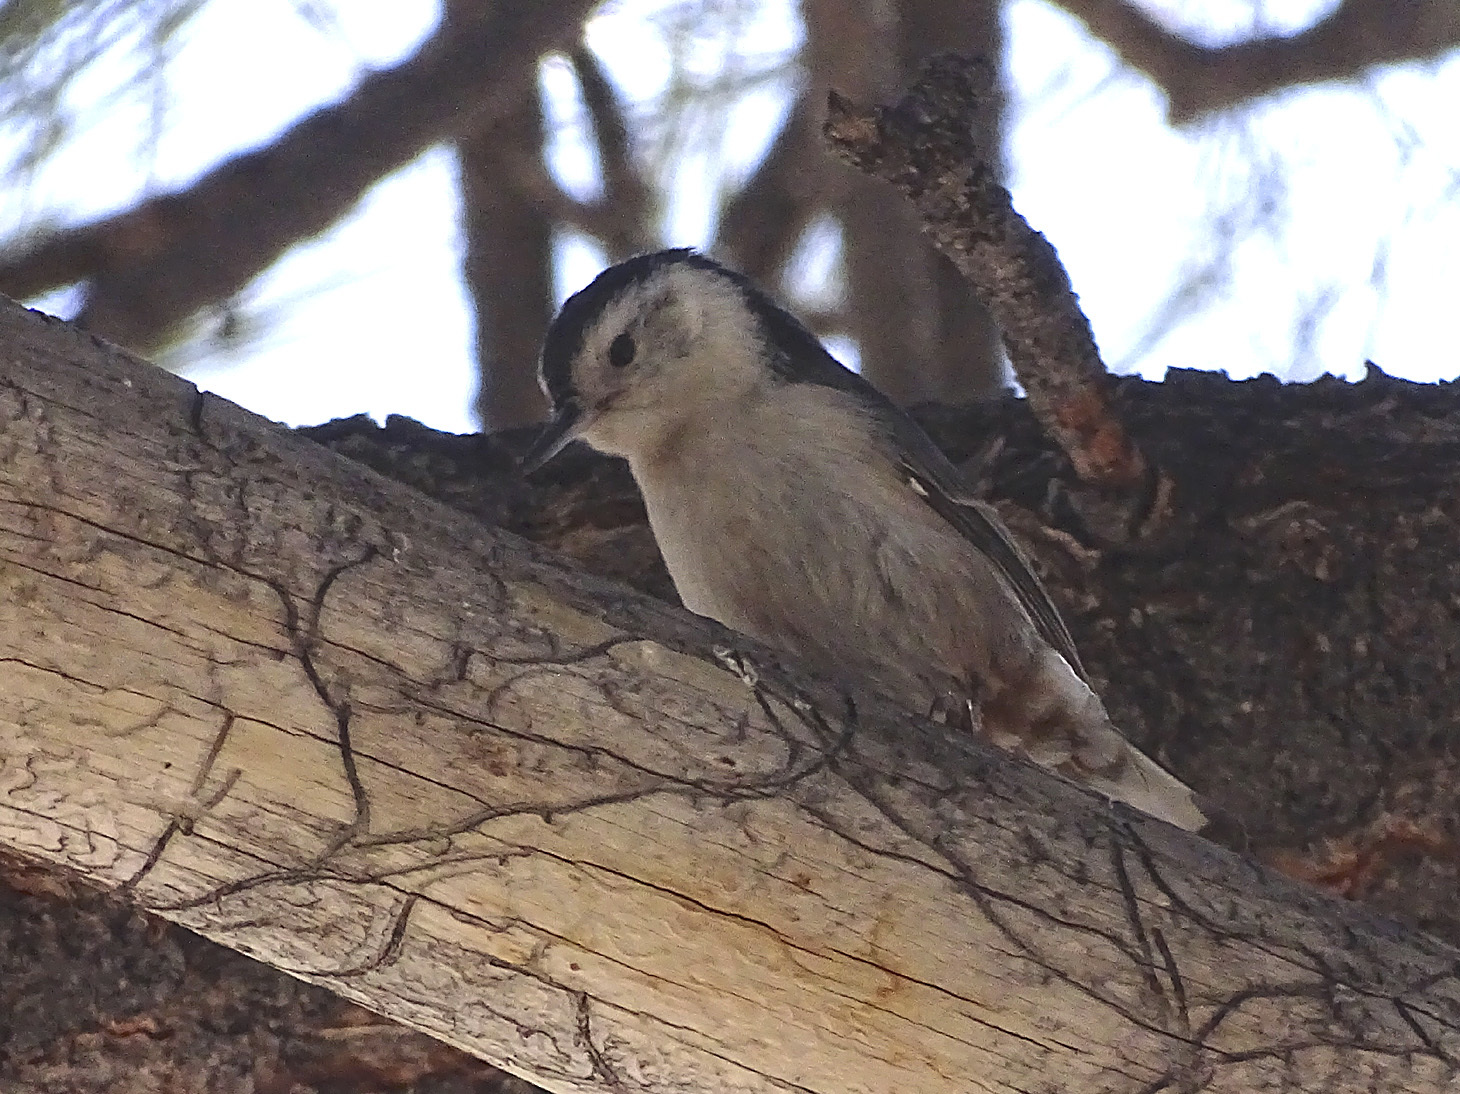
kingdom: Animalia
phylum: Chordata
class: Aves
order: Passeriformes
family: Sittidae
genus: Sitta
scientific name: Sitta carolinensis
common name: White-breasted nuthatch
